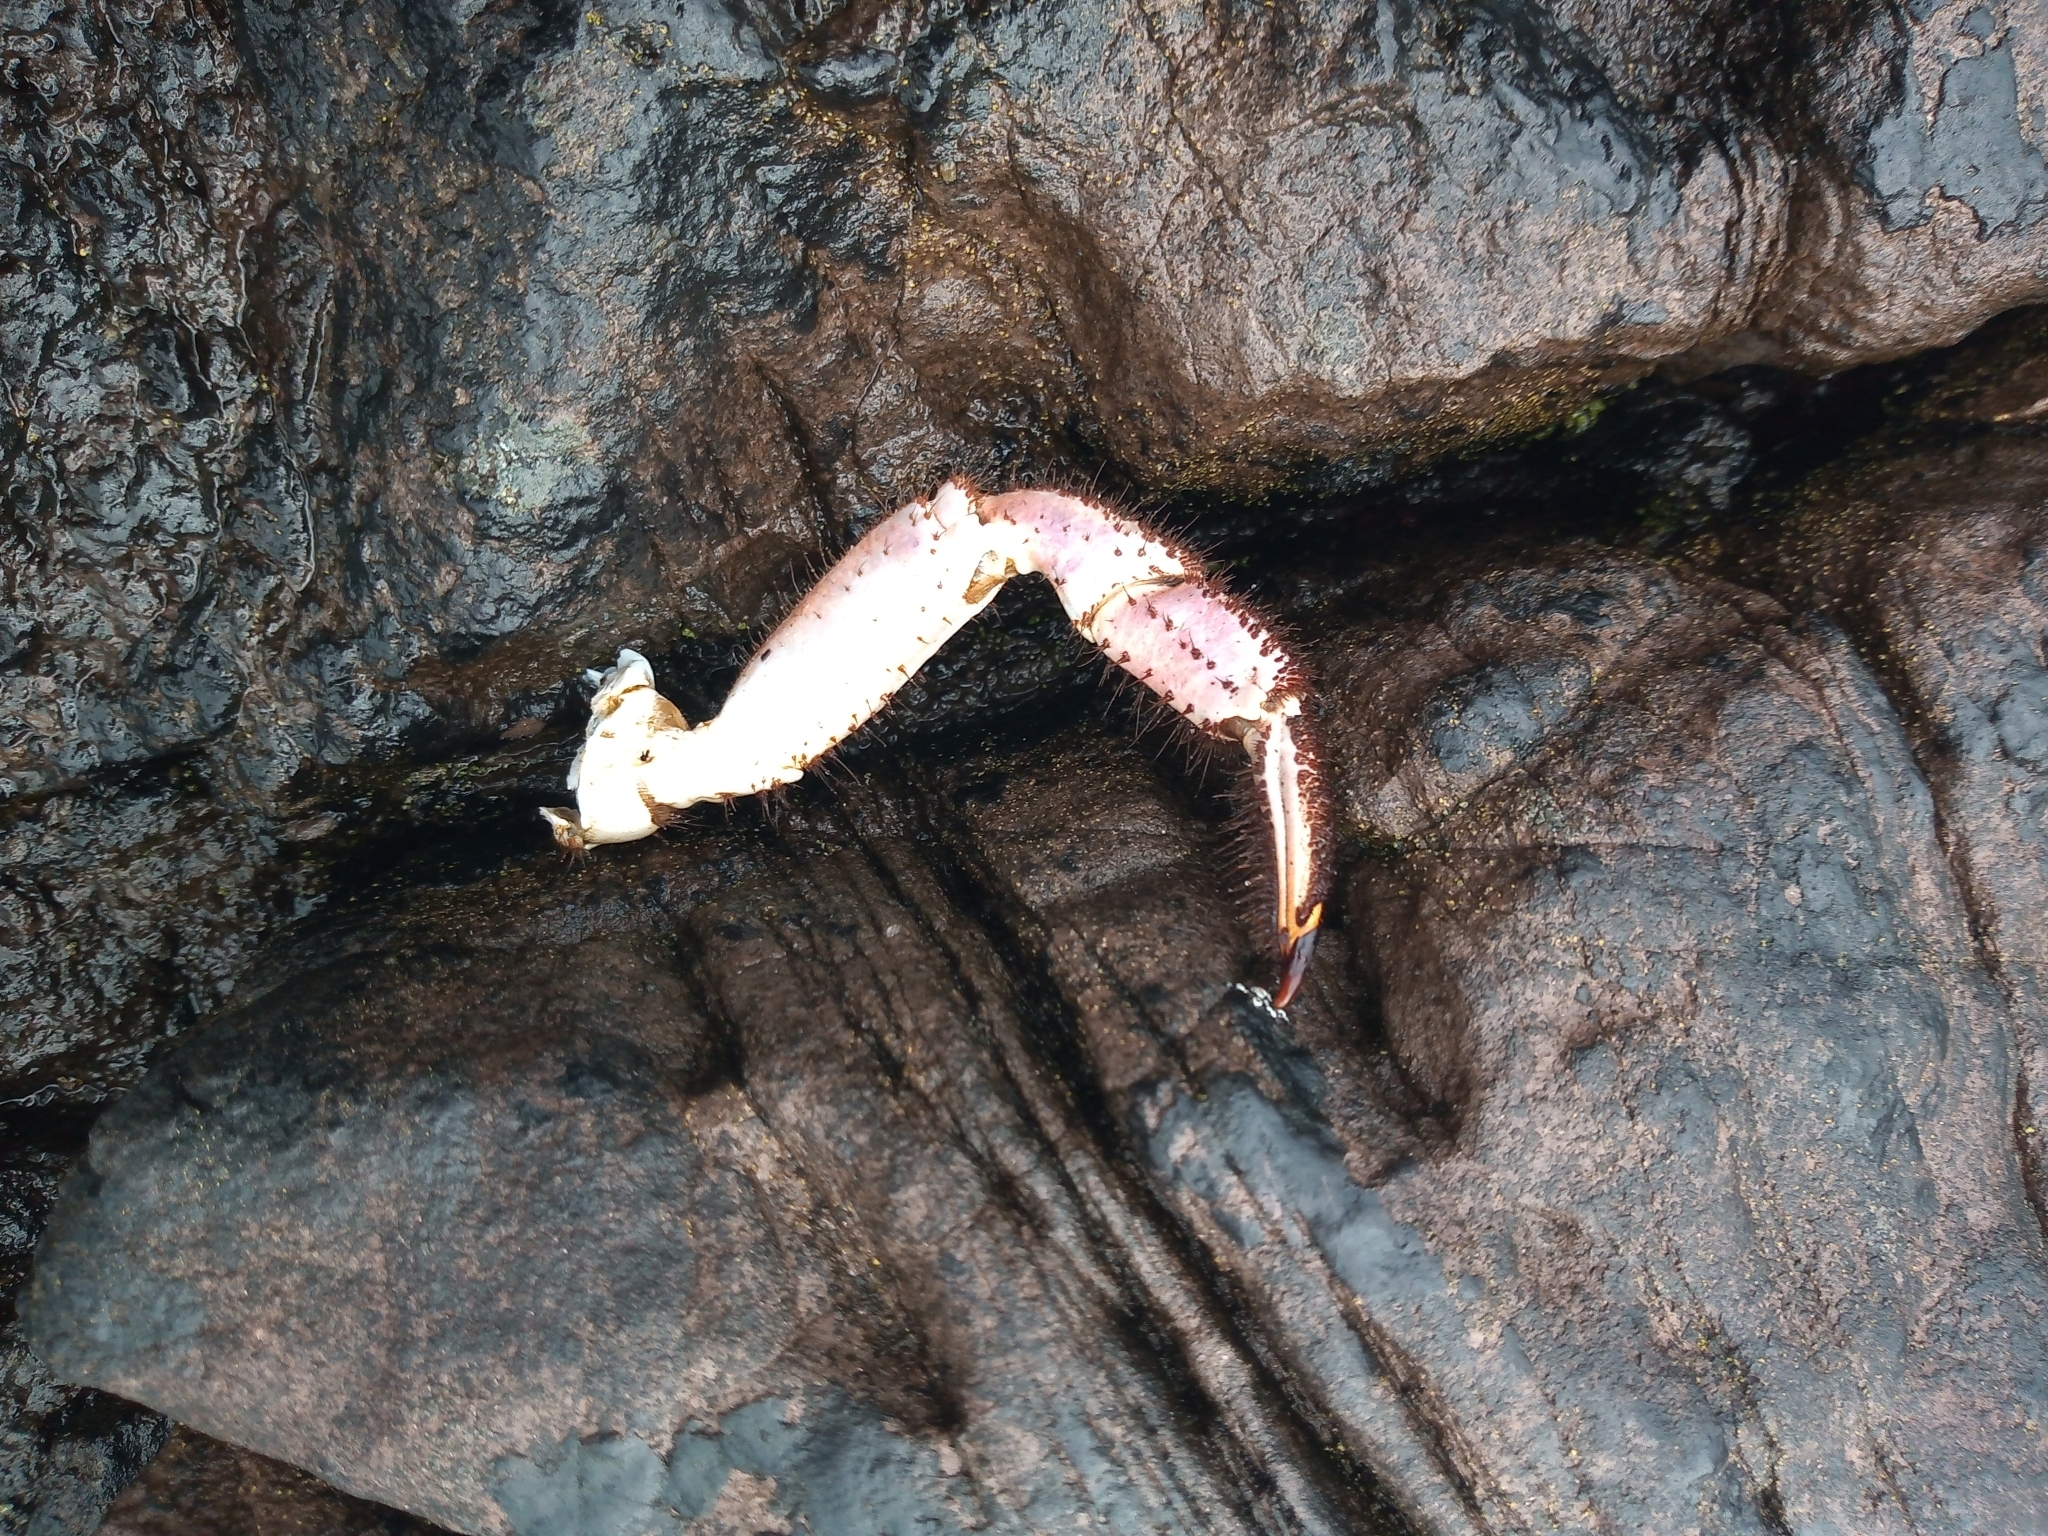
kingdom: Animalia
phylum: Arthropoda
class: Malacostraca
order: Decapoda
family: Cancridae
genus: Cancer
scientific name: Cancer pagurus
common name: Edible crab
